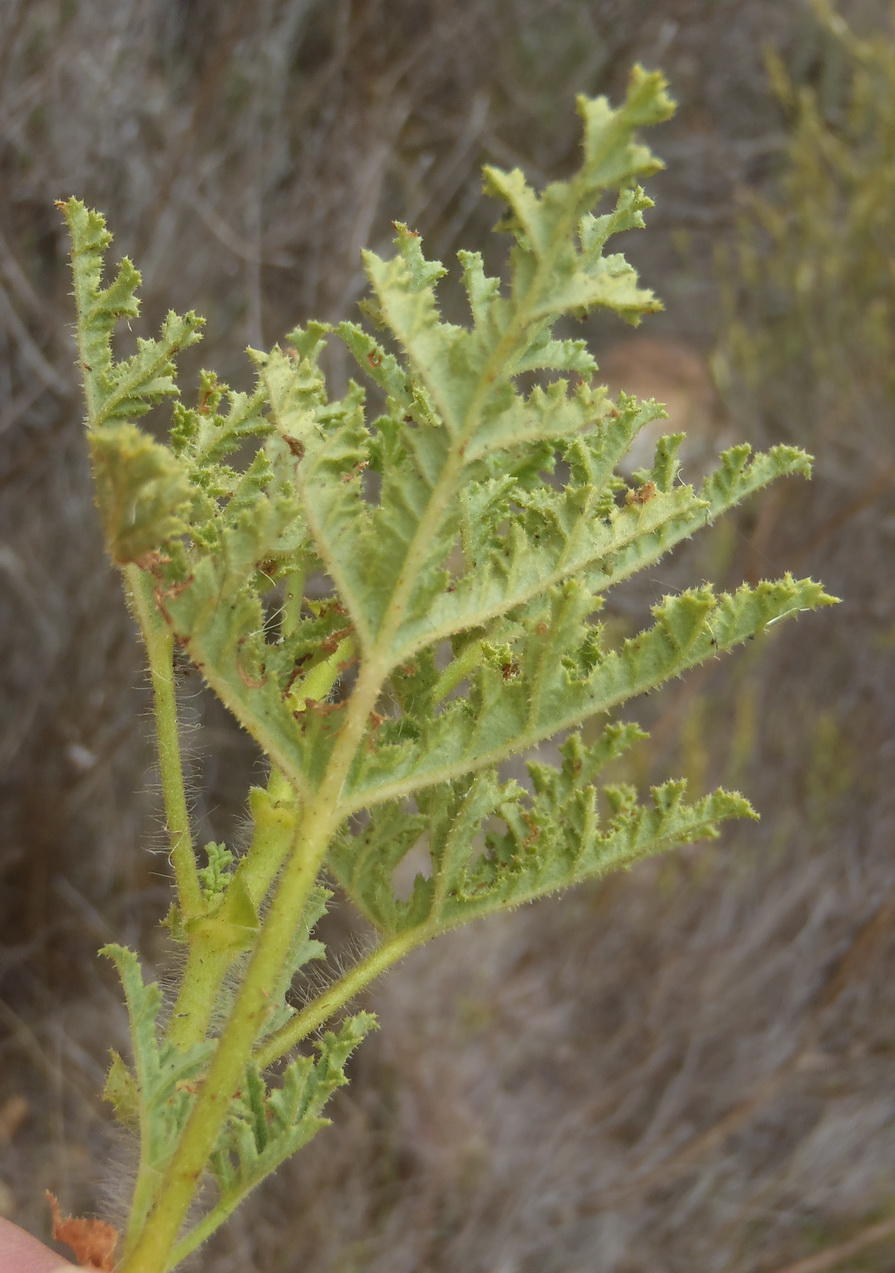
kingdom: Plantae
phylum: Tracheophyta
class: Magnoliopsida
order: Geraniales
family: Geraniaceae
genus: Pelargonium
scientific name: Pelargonium glutinosum
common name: Pheasant-foot geranium
